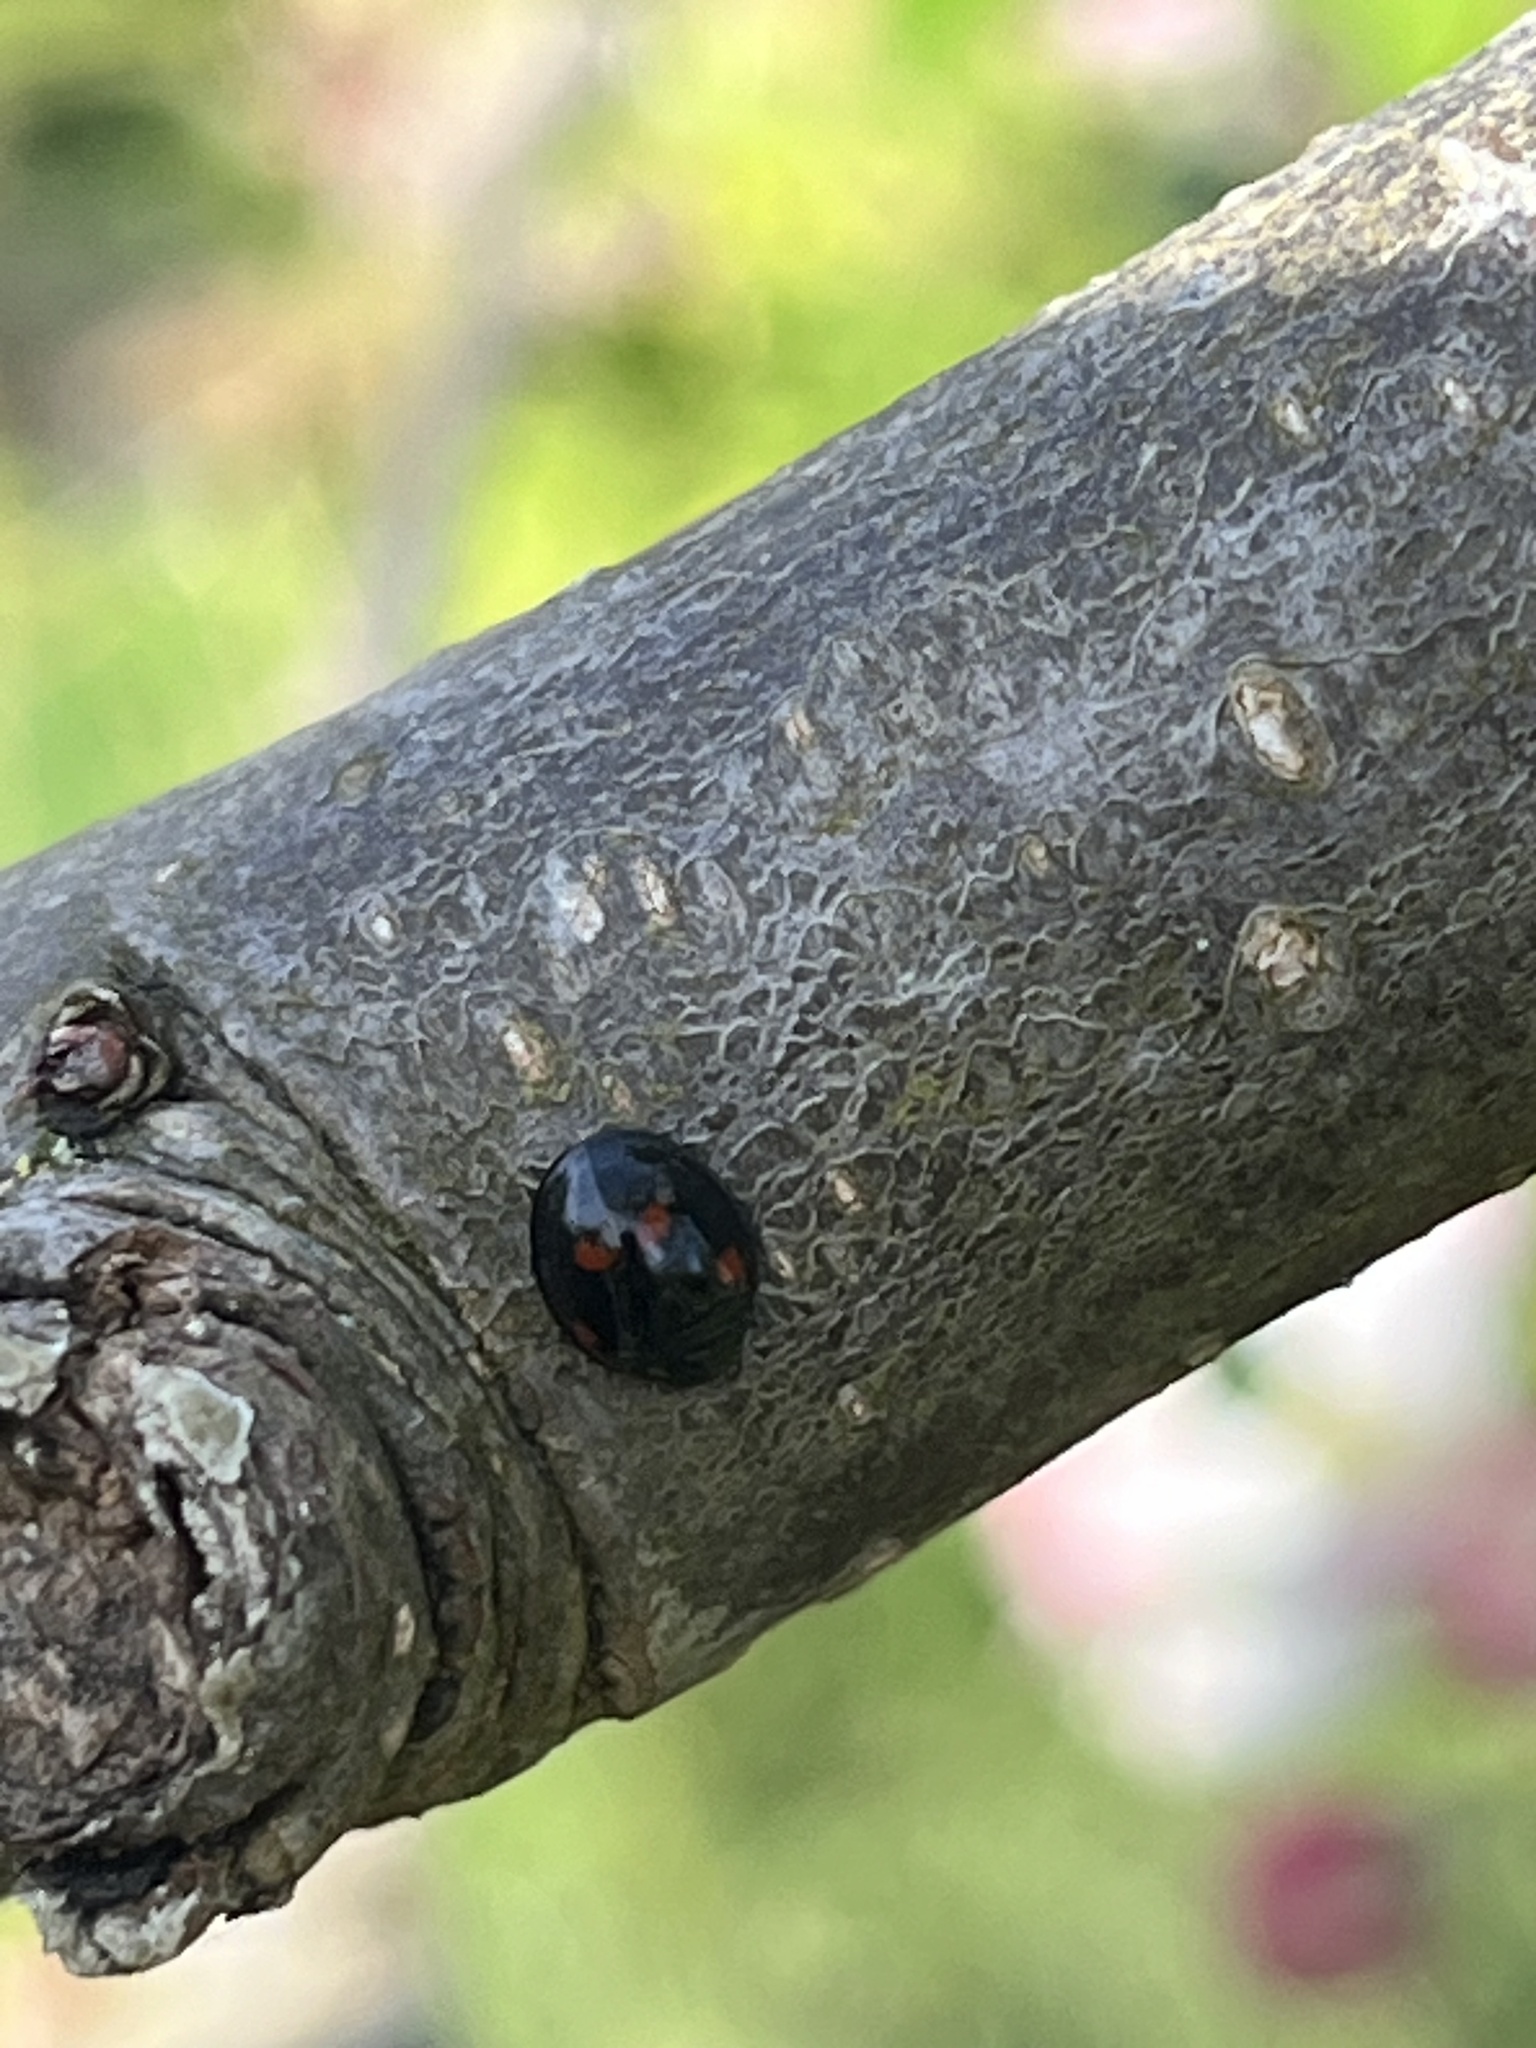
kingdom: Animalia
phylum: Arthropoda
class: Insecta
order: Coleoptera
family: Coccinellidae
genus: Brumus
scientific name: Brumus quadripustulatus
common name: Ladybird beetle
